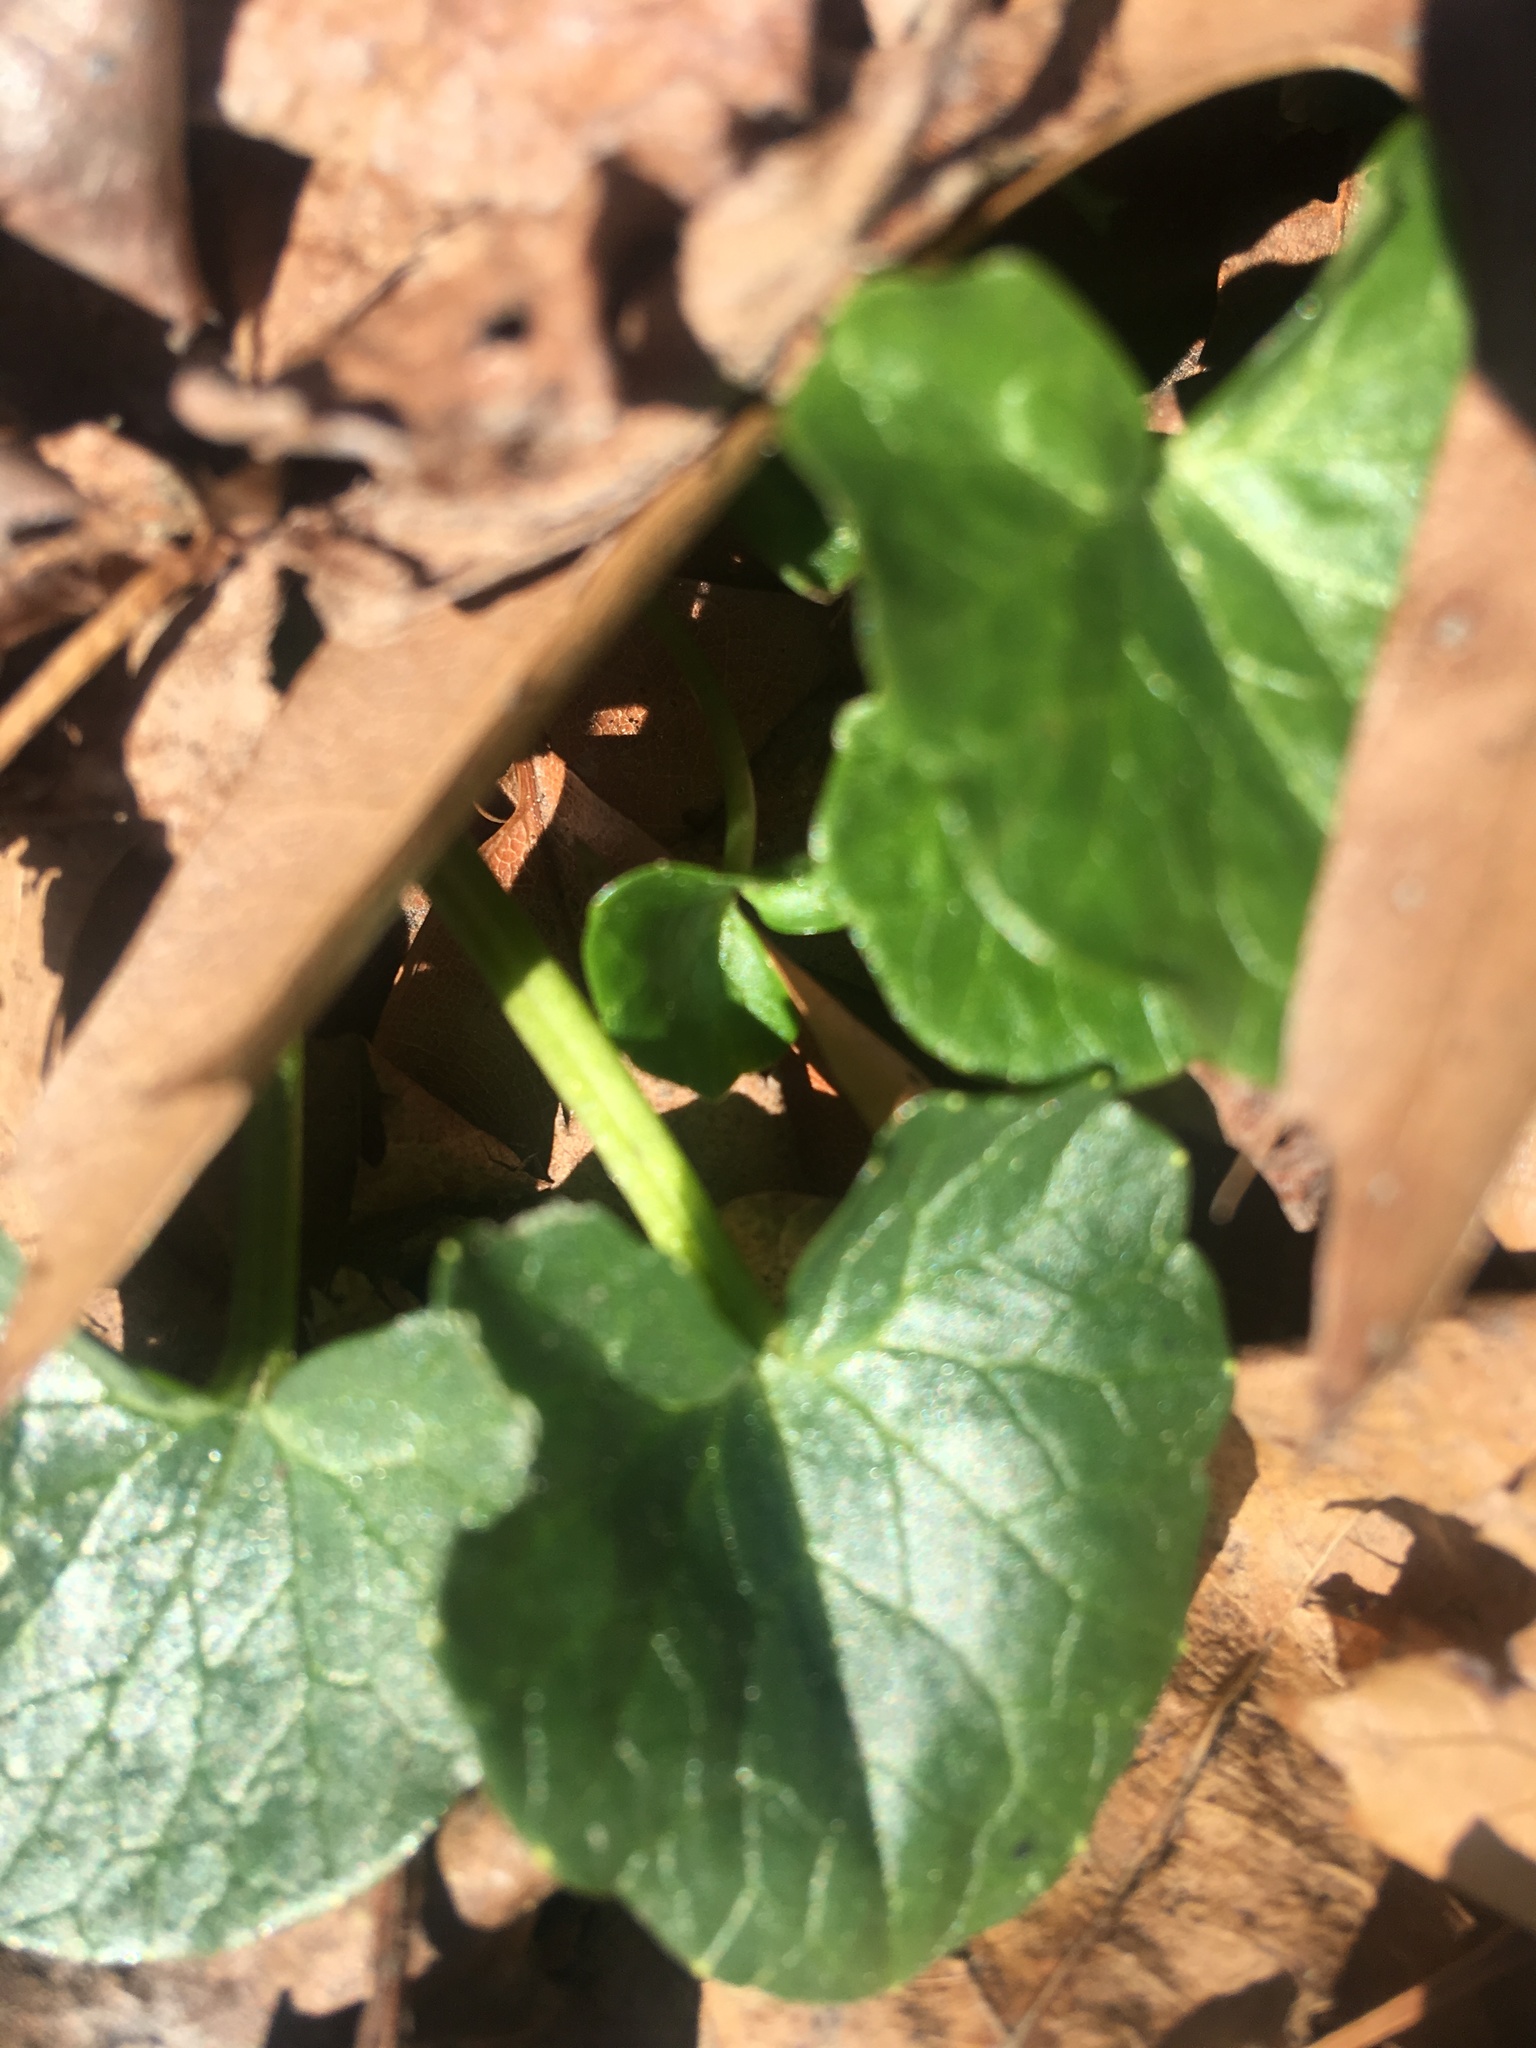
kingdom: Plantae
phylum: Tracheophyta
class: Magnoliopsida
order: Ranunculales
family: Ranunculaceae
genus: Ficaria
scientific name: Ficaria verna
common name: Lesser celandine
